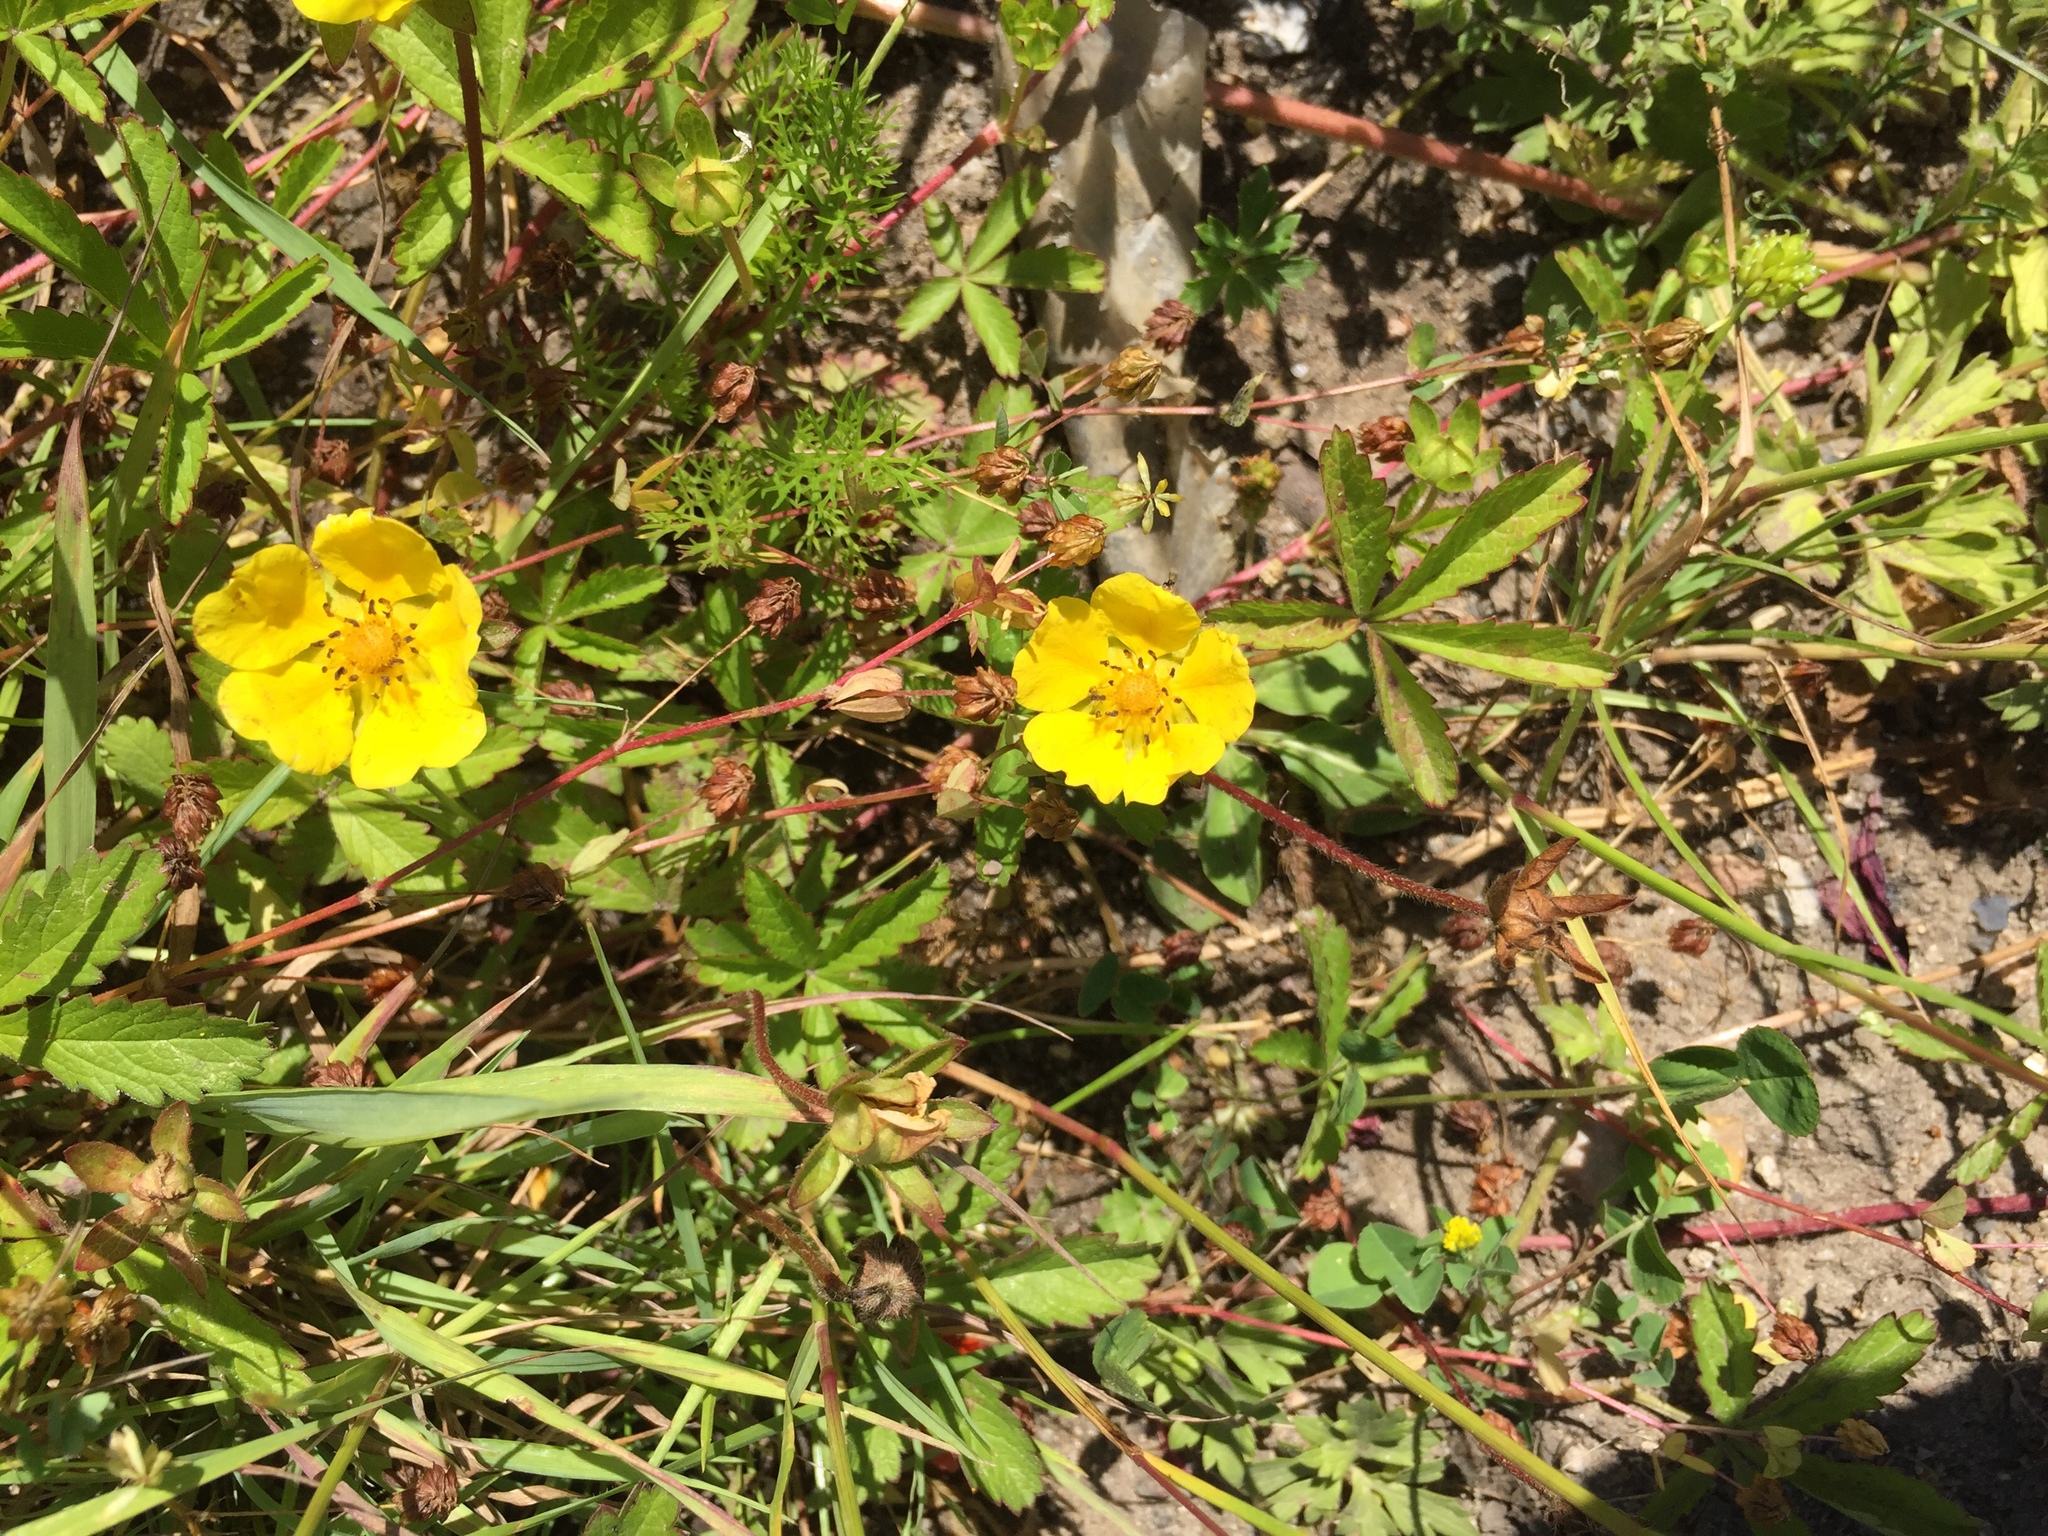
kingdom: Plantae
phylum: Tracheophyta
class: Magnoliopsida
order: Rosales
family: Rosaceae
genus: Potentilla
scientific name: Potentilla reptans
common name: Creeping cinquefoil
